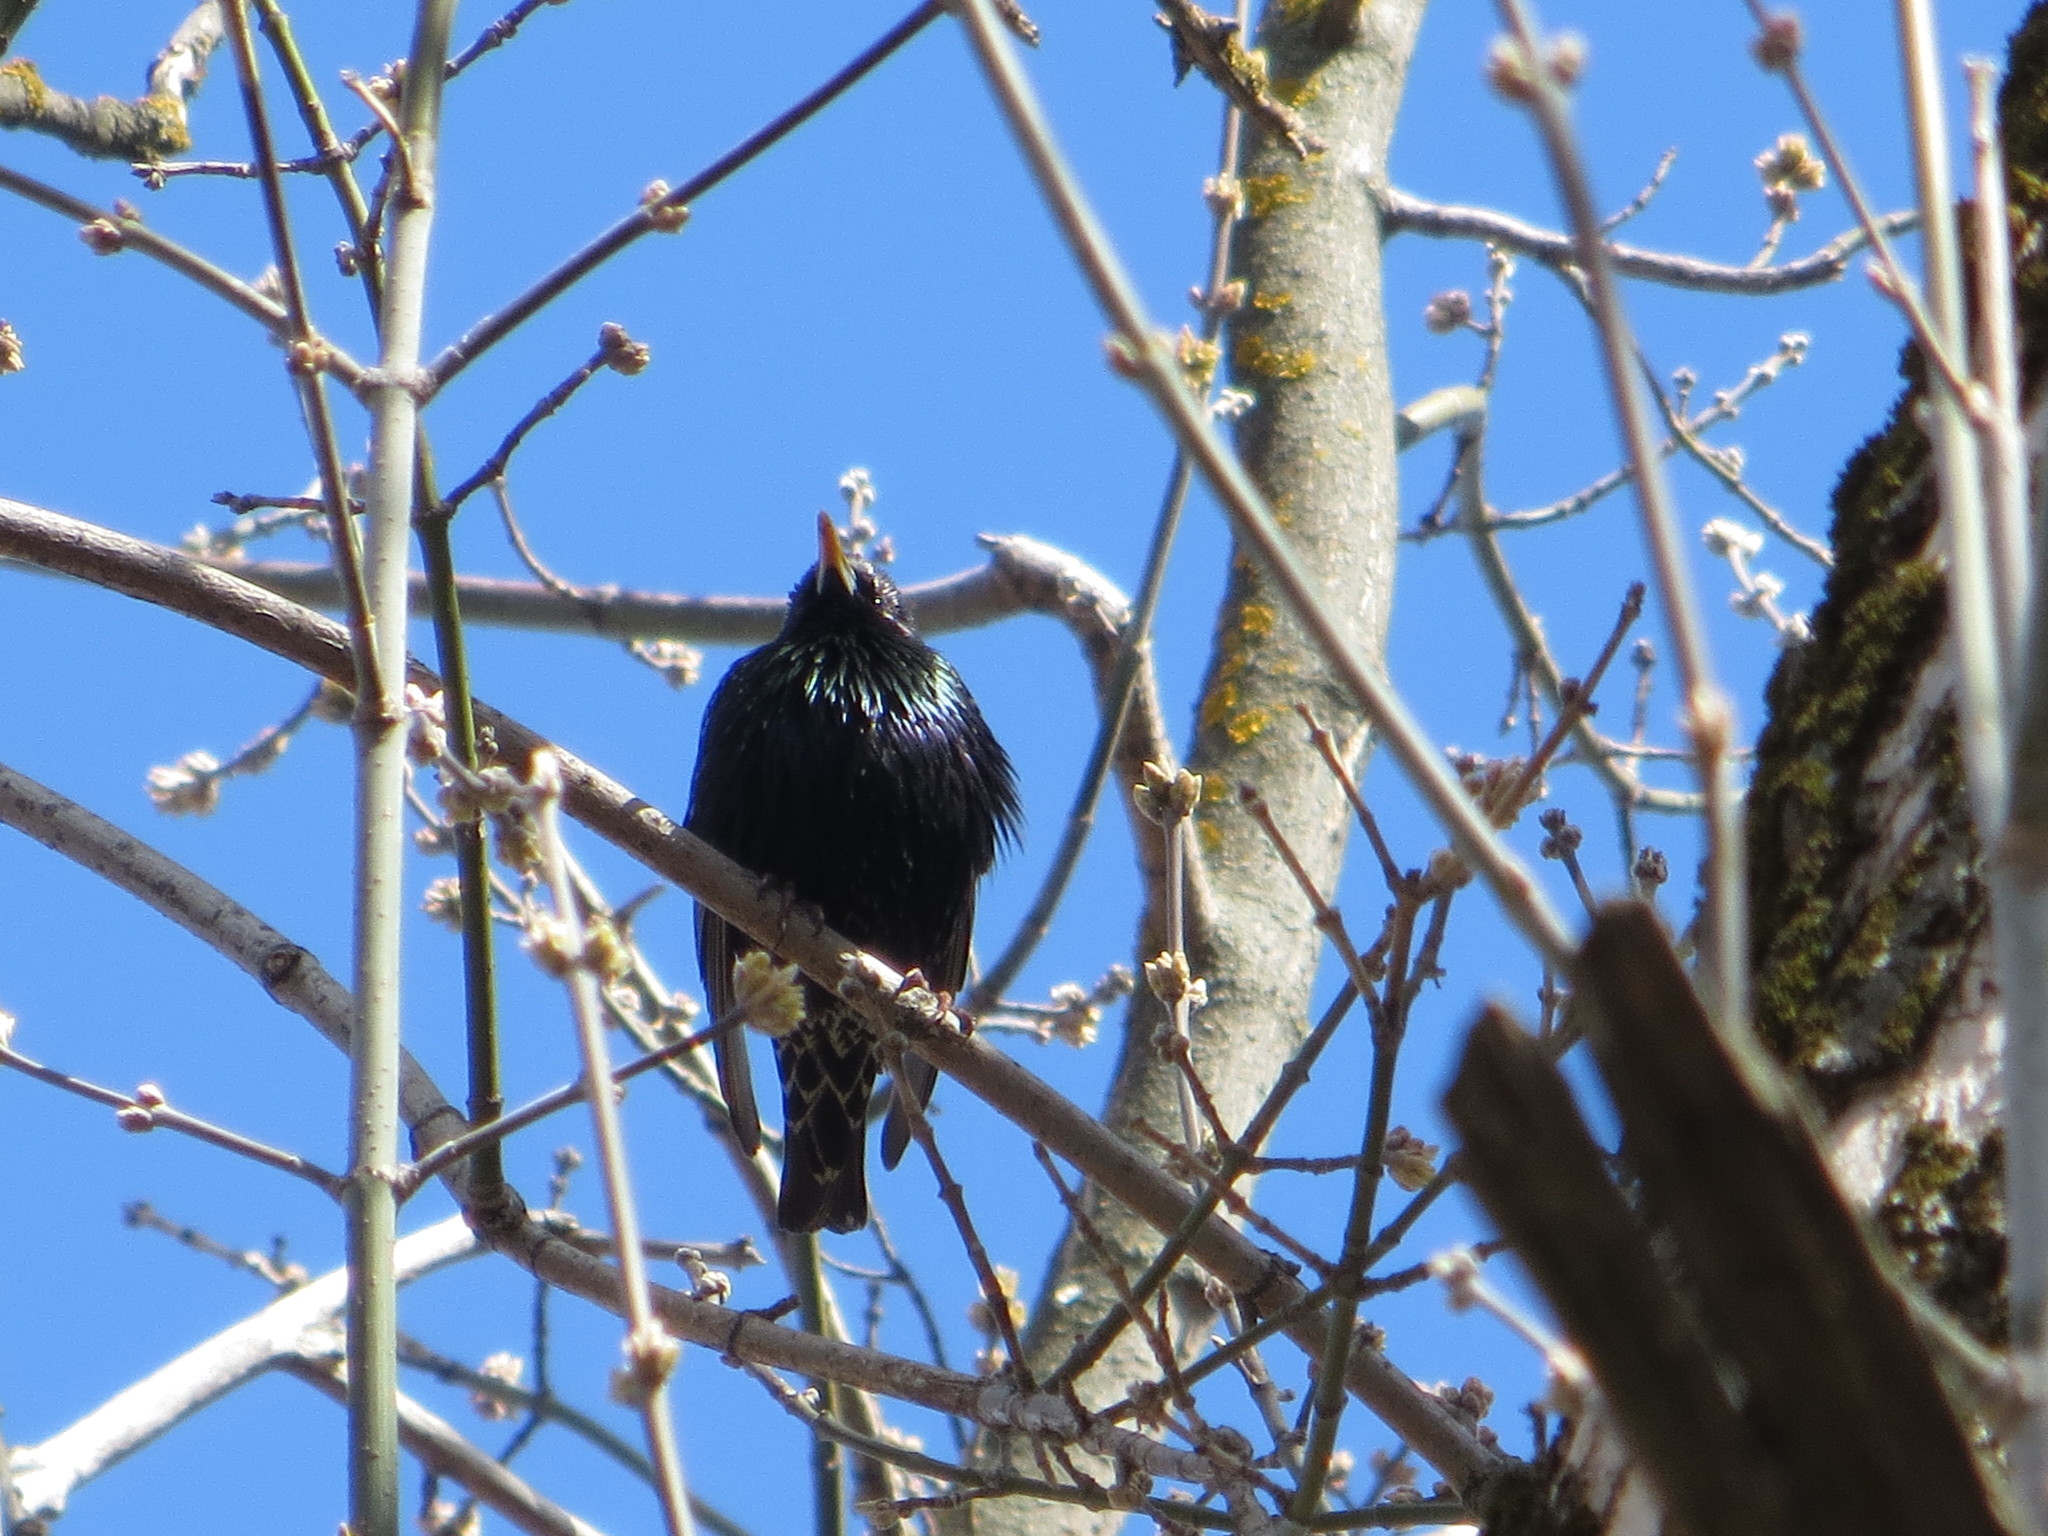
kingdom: Animalia
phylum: Chordata
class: Aves
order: Passeriformes
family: Sturnidae
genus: Sturnus
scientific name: Sturnus vulgaris
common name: Common starling
